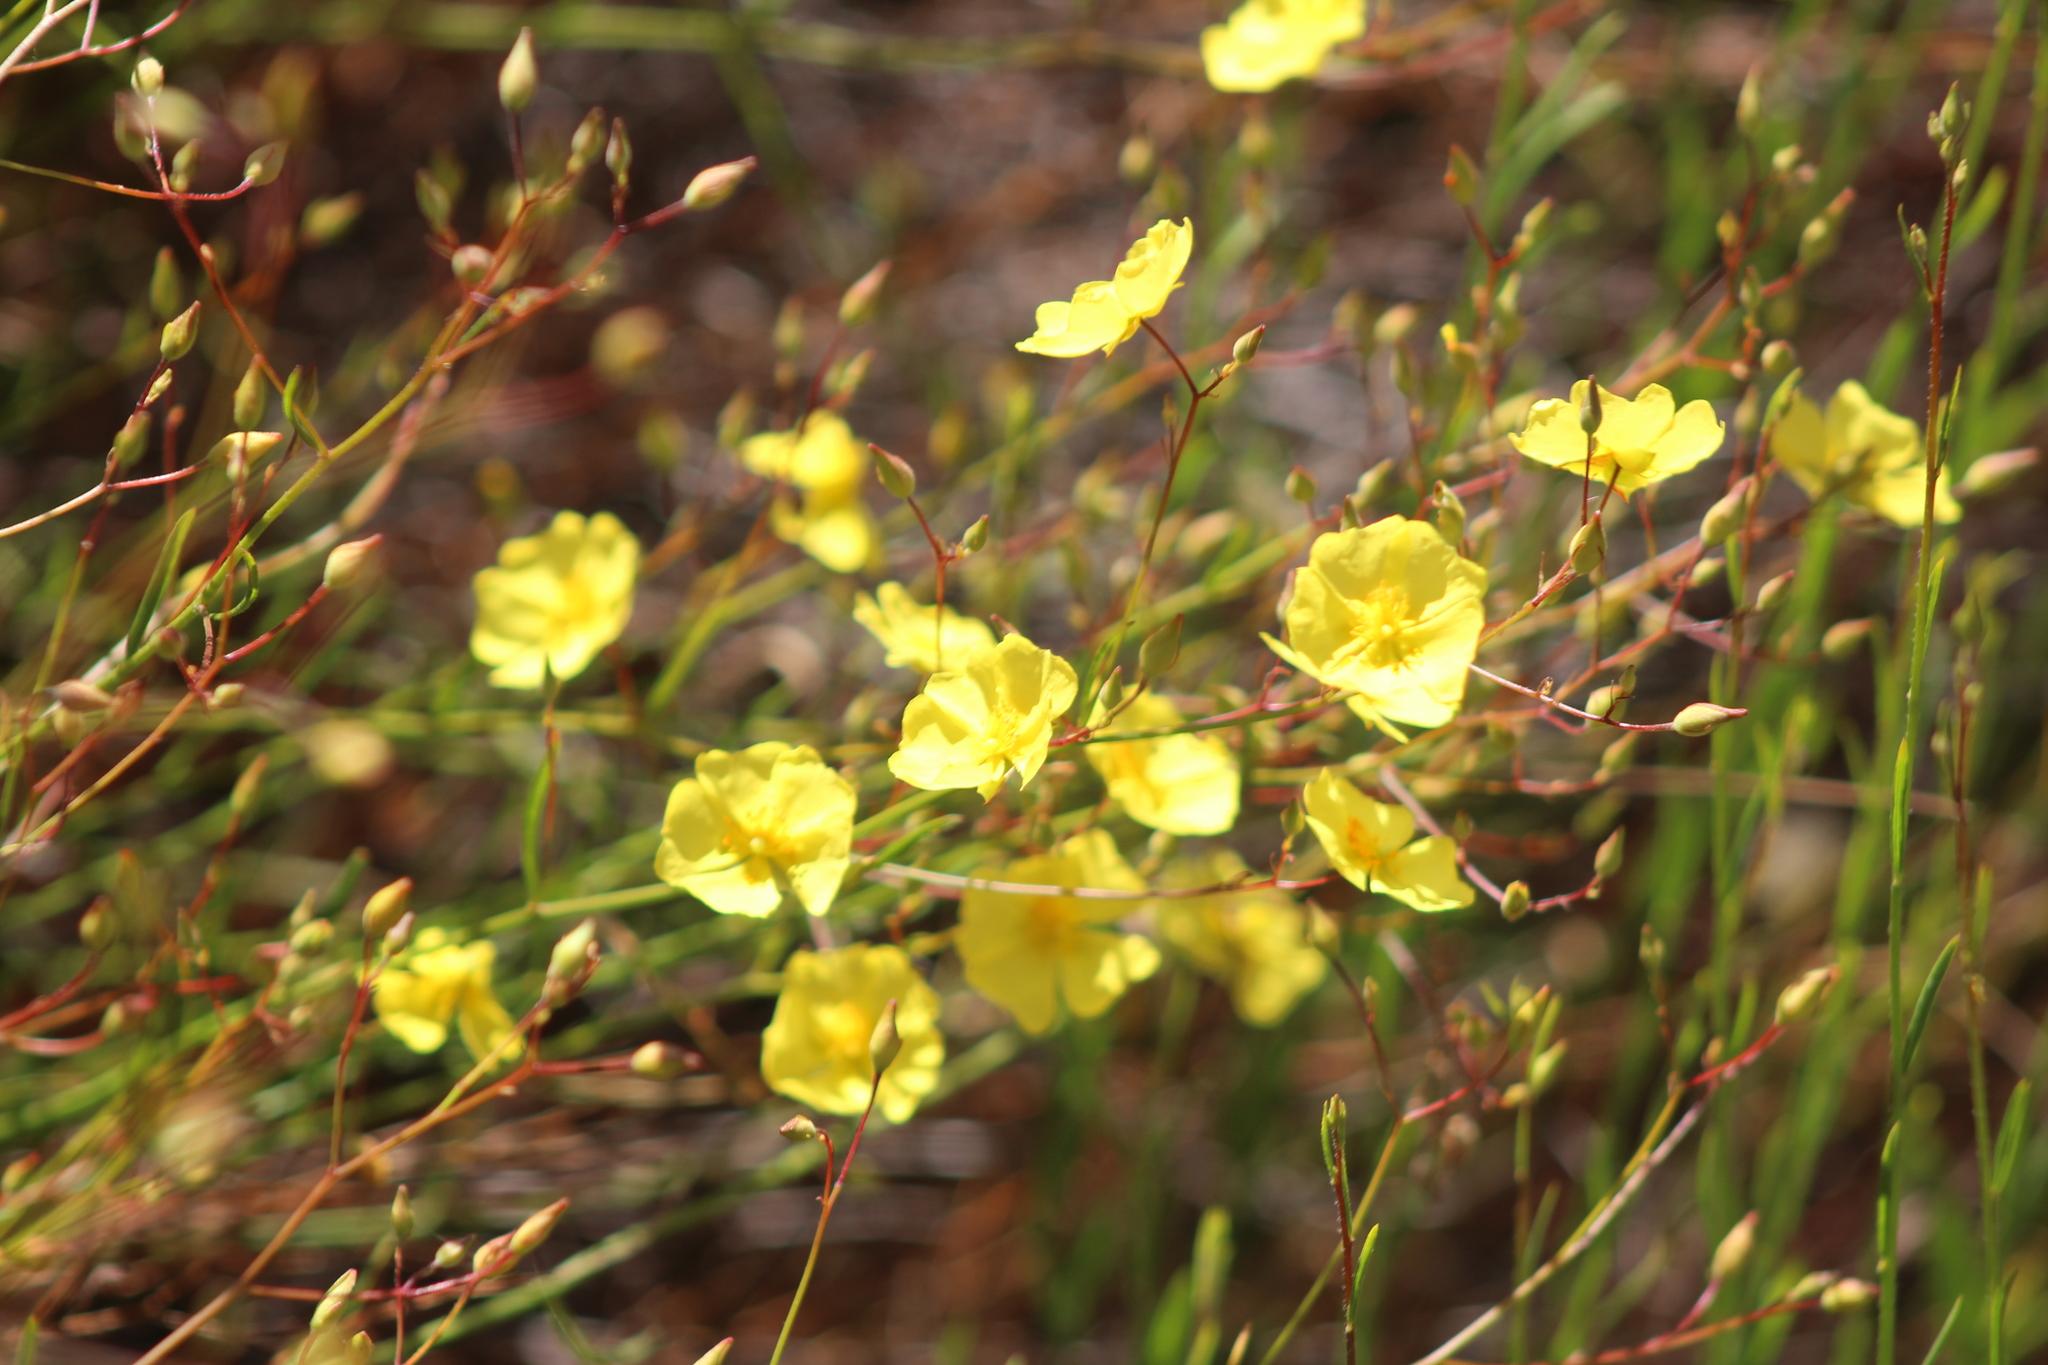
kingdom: Plantae
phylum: Tracheophyta
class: Magnoliopsida
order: Malvales
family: Cistaceae
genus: Crocanthemum
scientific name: Crocanthemum scoparium
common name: Broom-rose
